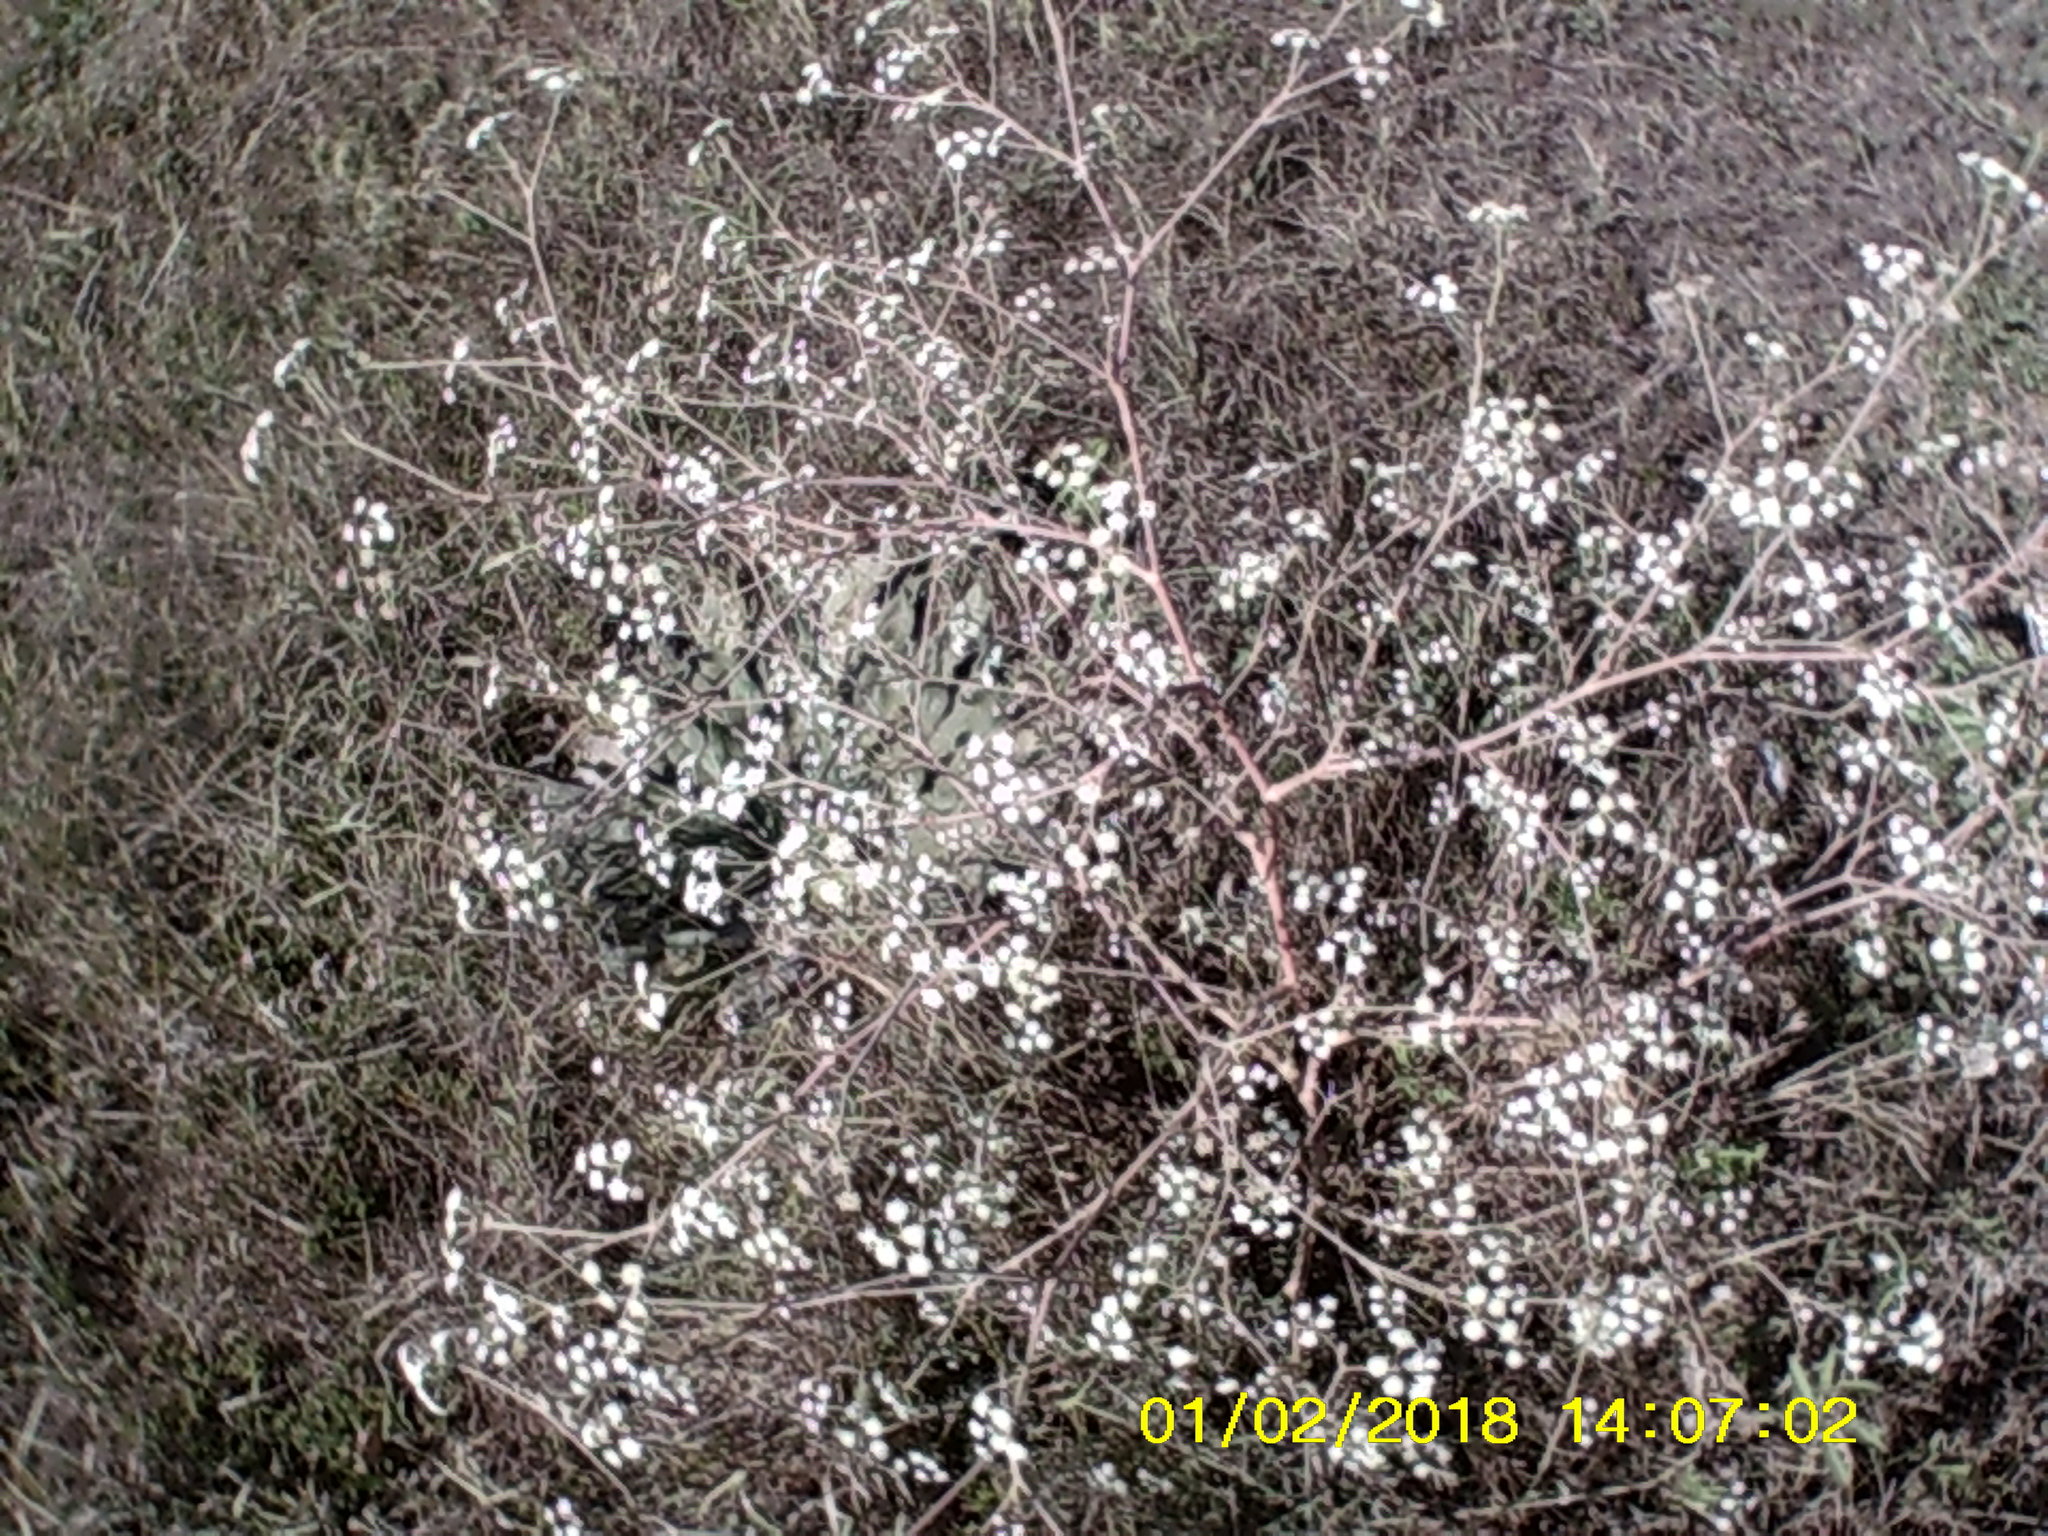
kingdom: Plantae
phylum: Tracheophyta
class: Magnoliopsida
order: Apiales
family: Apiaceae
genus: Seseli
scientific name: Seseli arenarium
